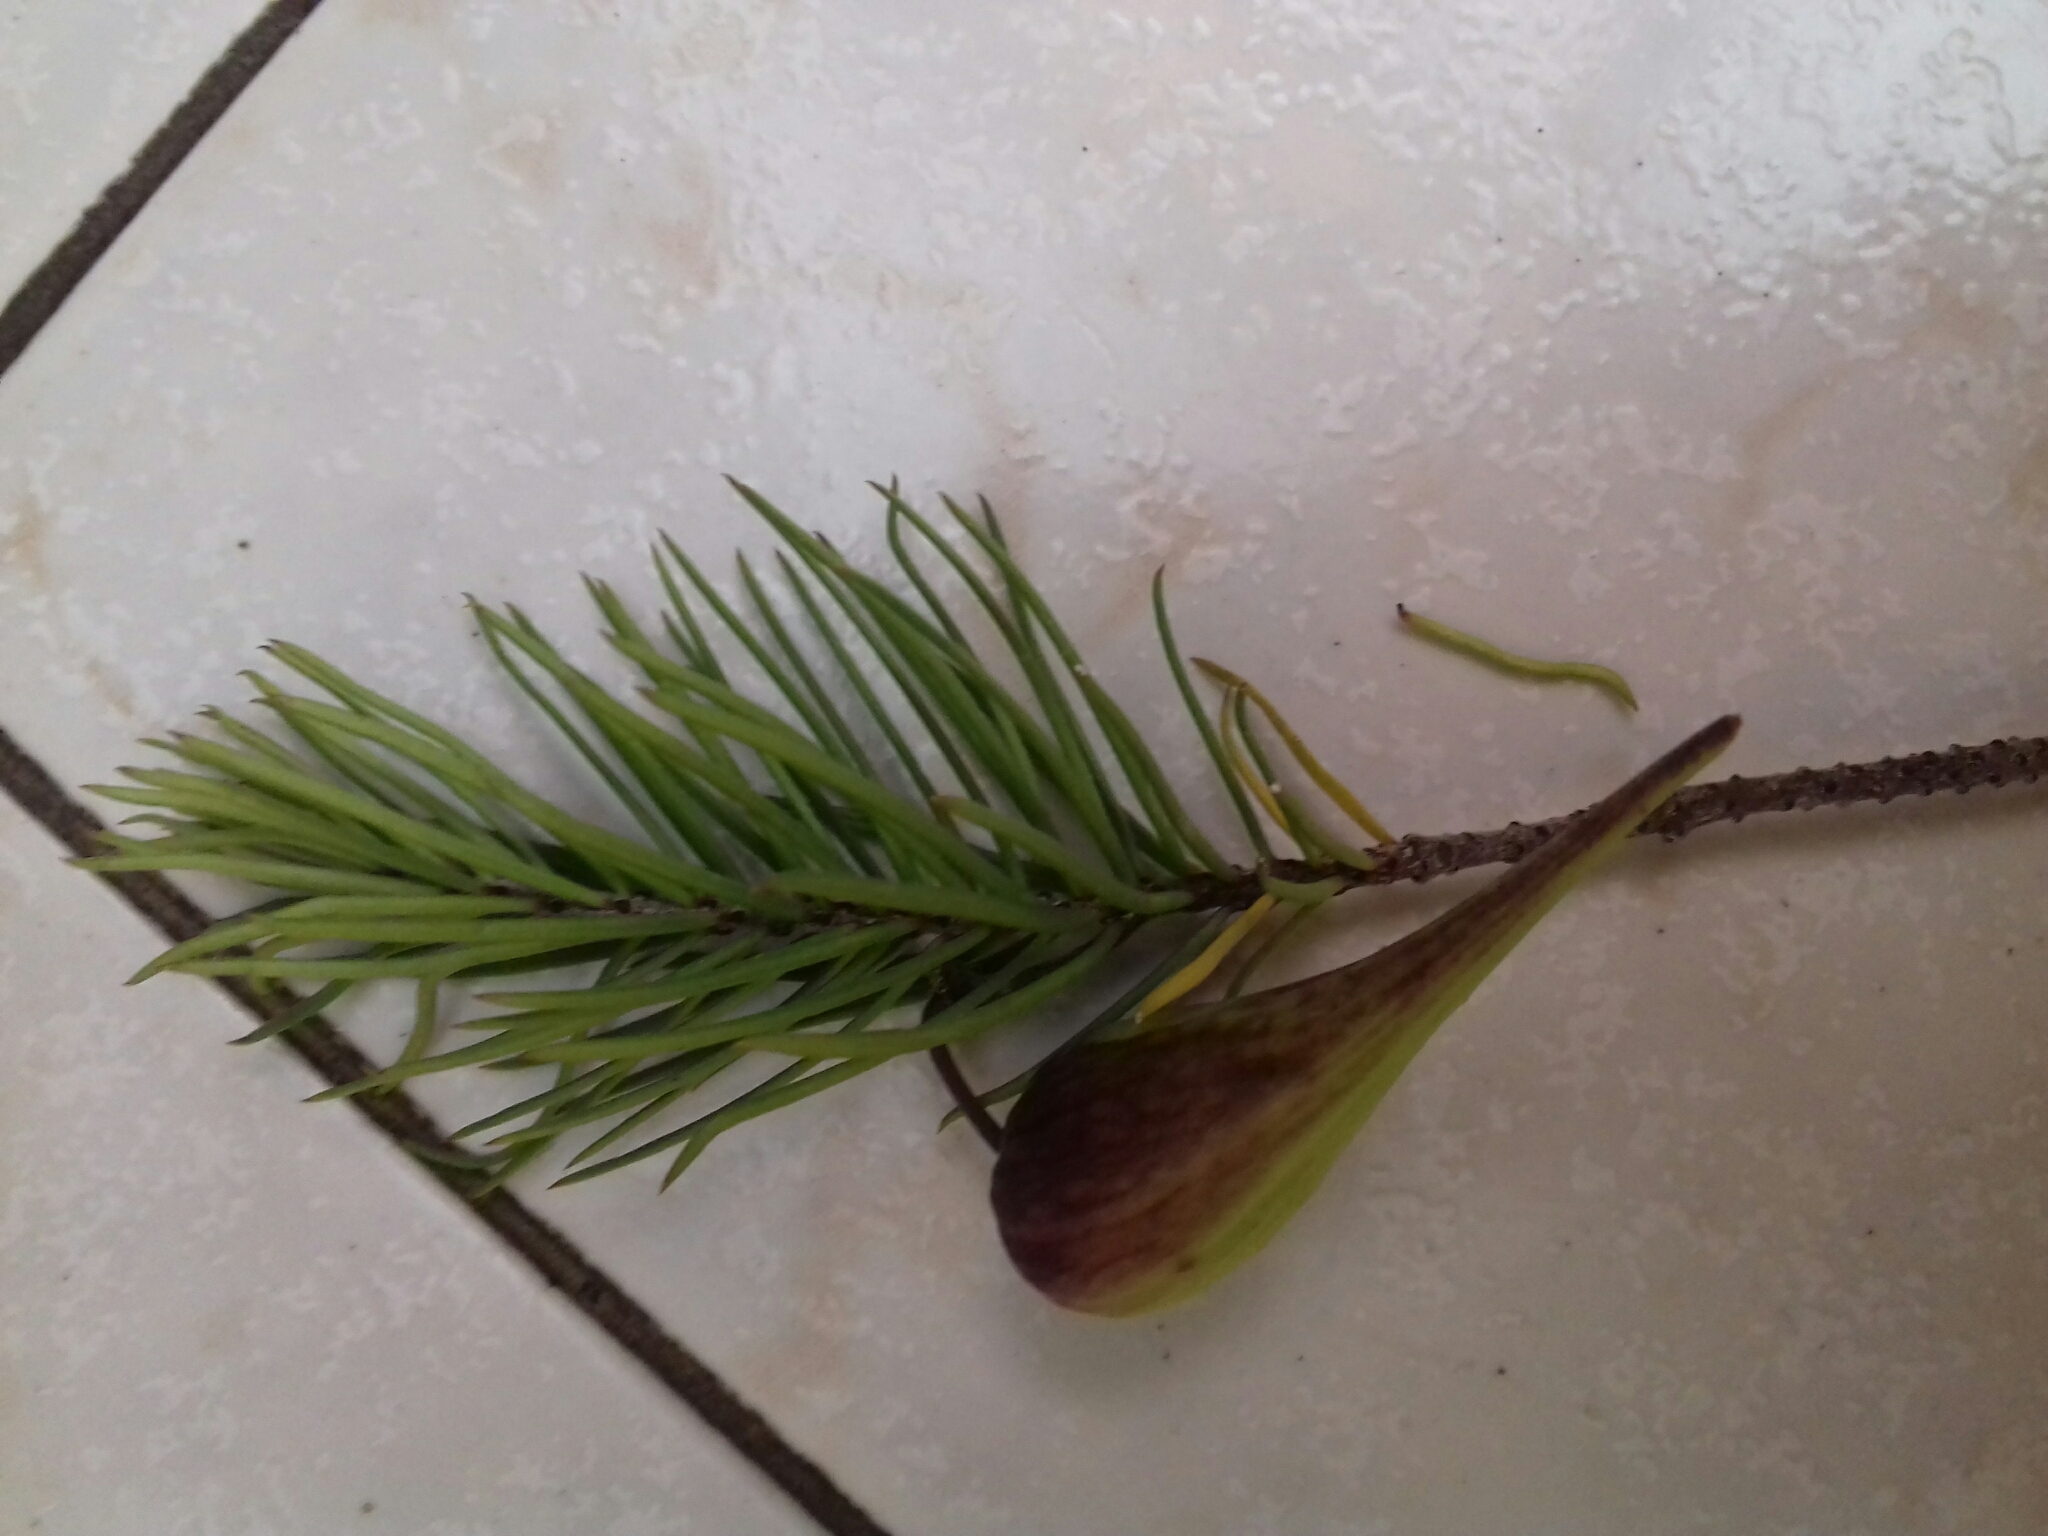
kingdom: Plantae
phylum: Tracheophyta
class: Magnoliopsida
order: Gentianales
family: Apocynaceae
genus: Asclepias
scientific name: Asclepias linaria
